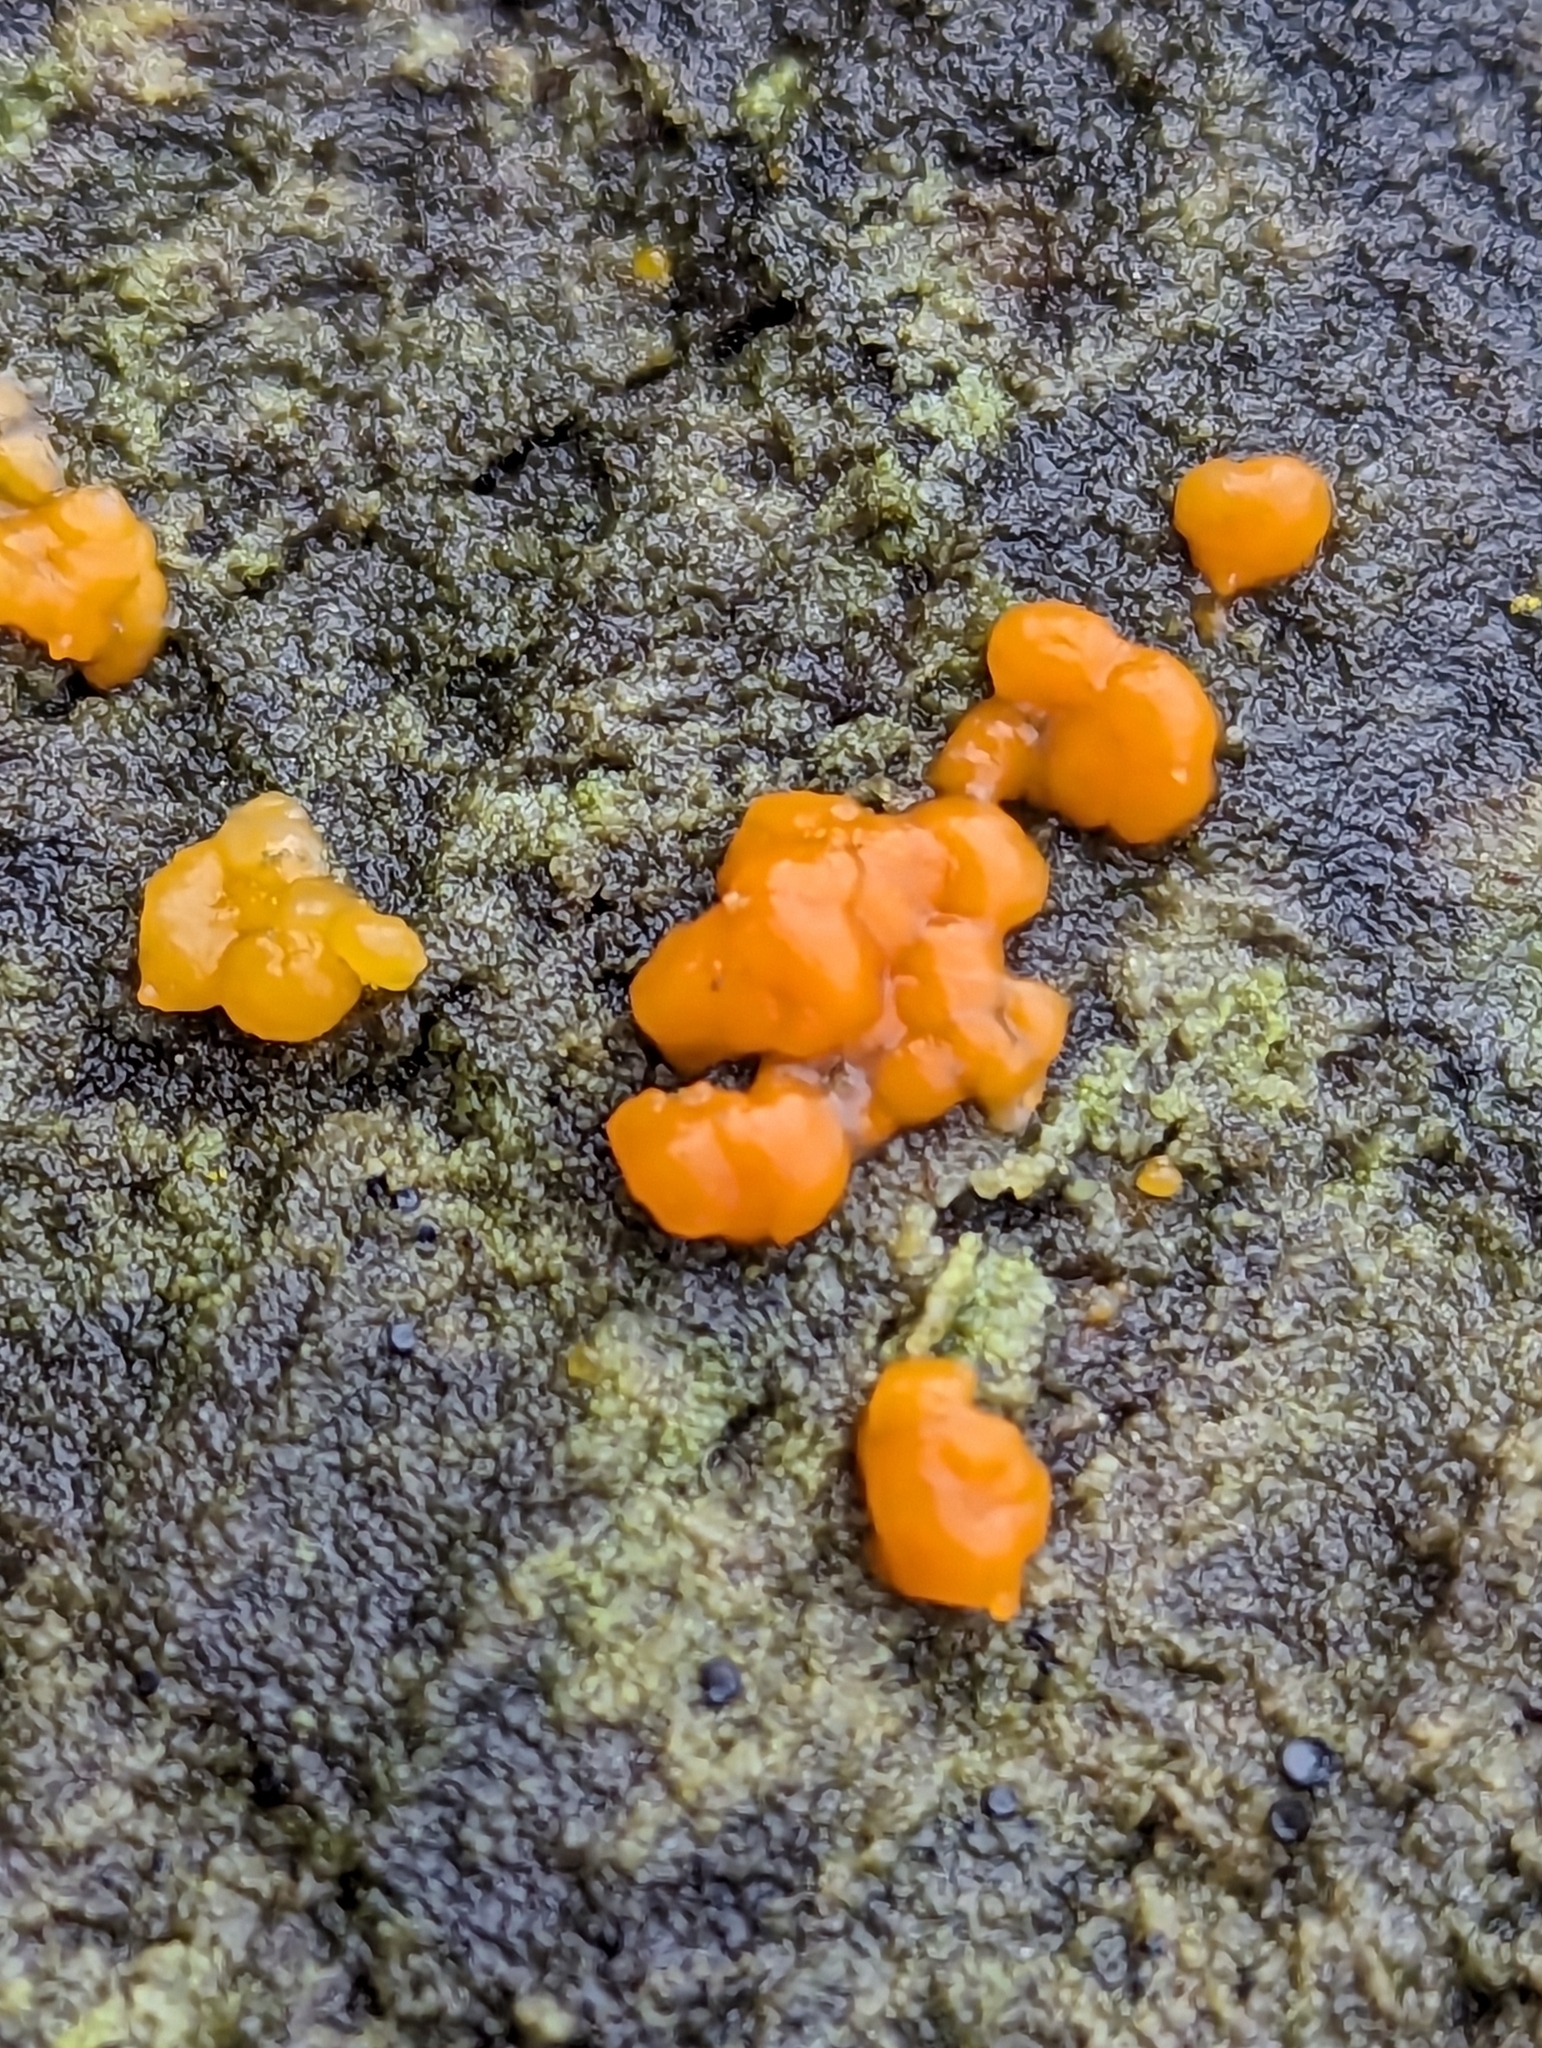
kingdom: Fungi
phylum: Basidiomycota
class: Dacrymycetes
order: Dacrymycetales
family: Dacrymycetaceae
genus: Dacrymyces
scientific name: Dacrymyces stillatus
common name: Common jelly spot
